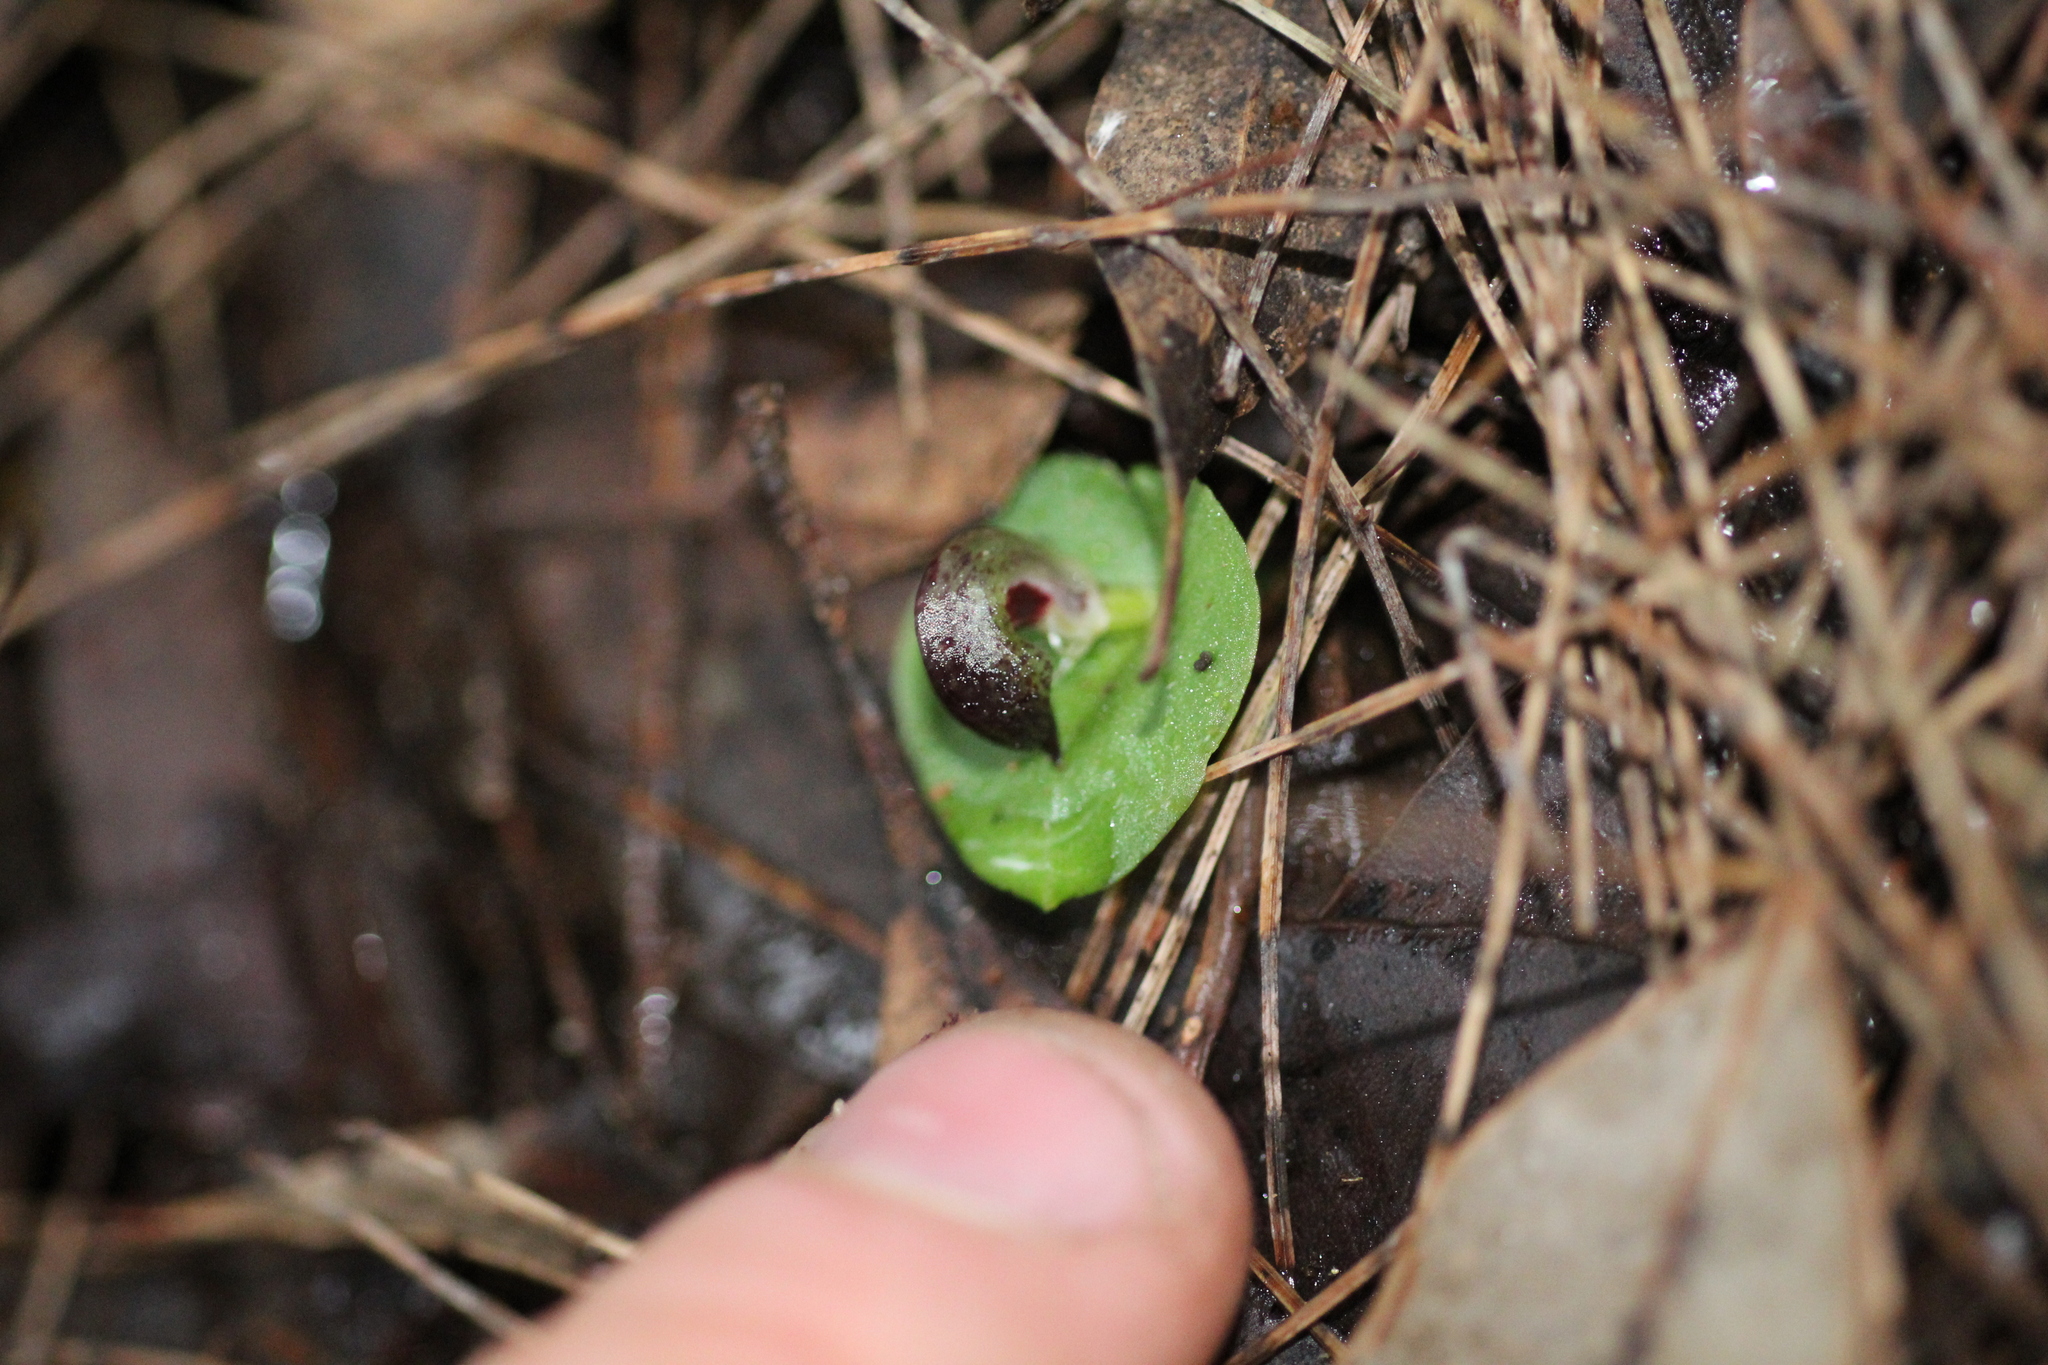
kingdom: Plantae
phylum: Tracheophyta
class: Liliopsida
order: Asparagales
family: Orchidaceae
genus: Corybas
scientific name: Corybas recurvus
